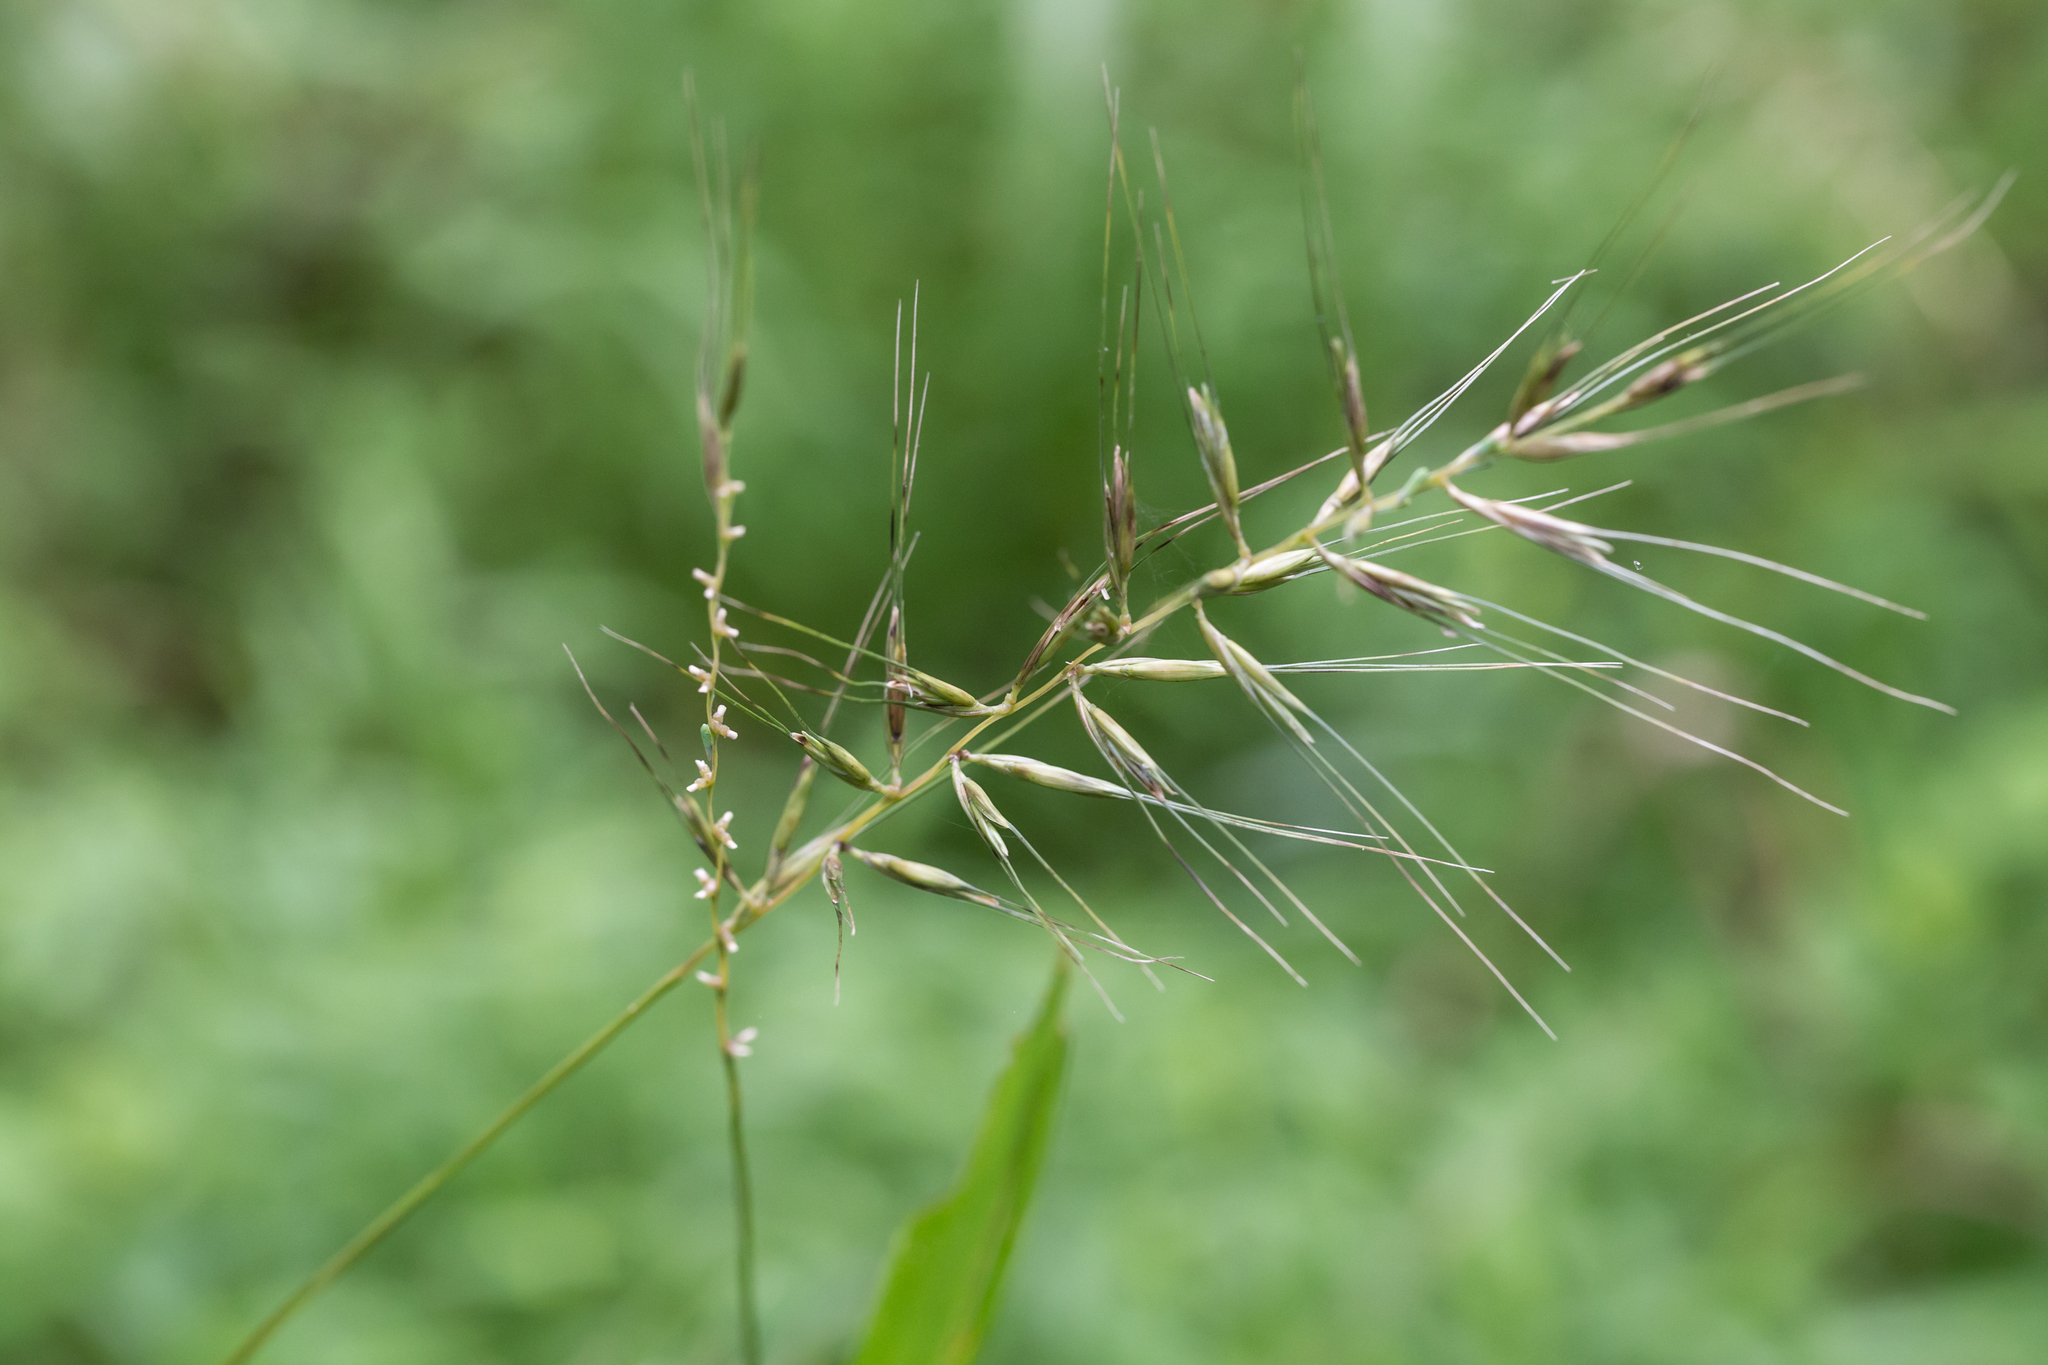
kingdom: Plantae
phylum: Tracheophyta
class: Liliopsida
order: Poales
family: Poaceae
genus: Elymus
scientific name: Elymus hystrix
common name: Bottlebrush grass
